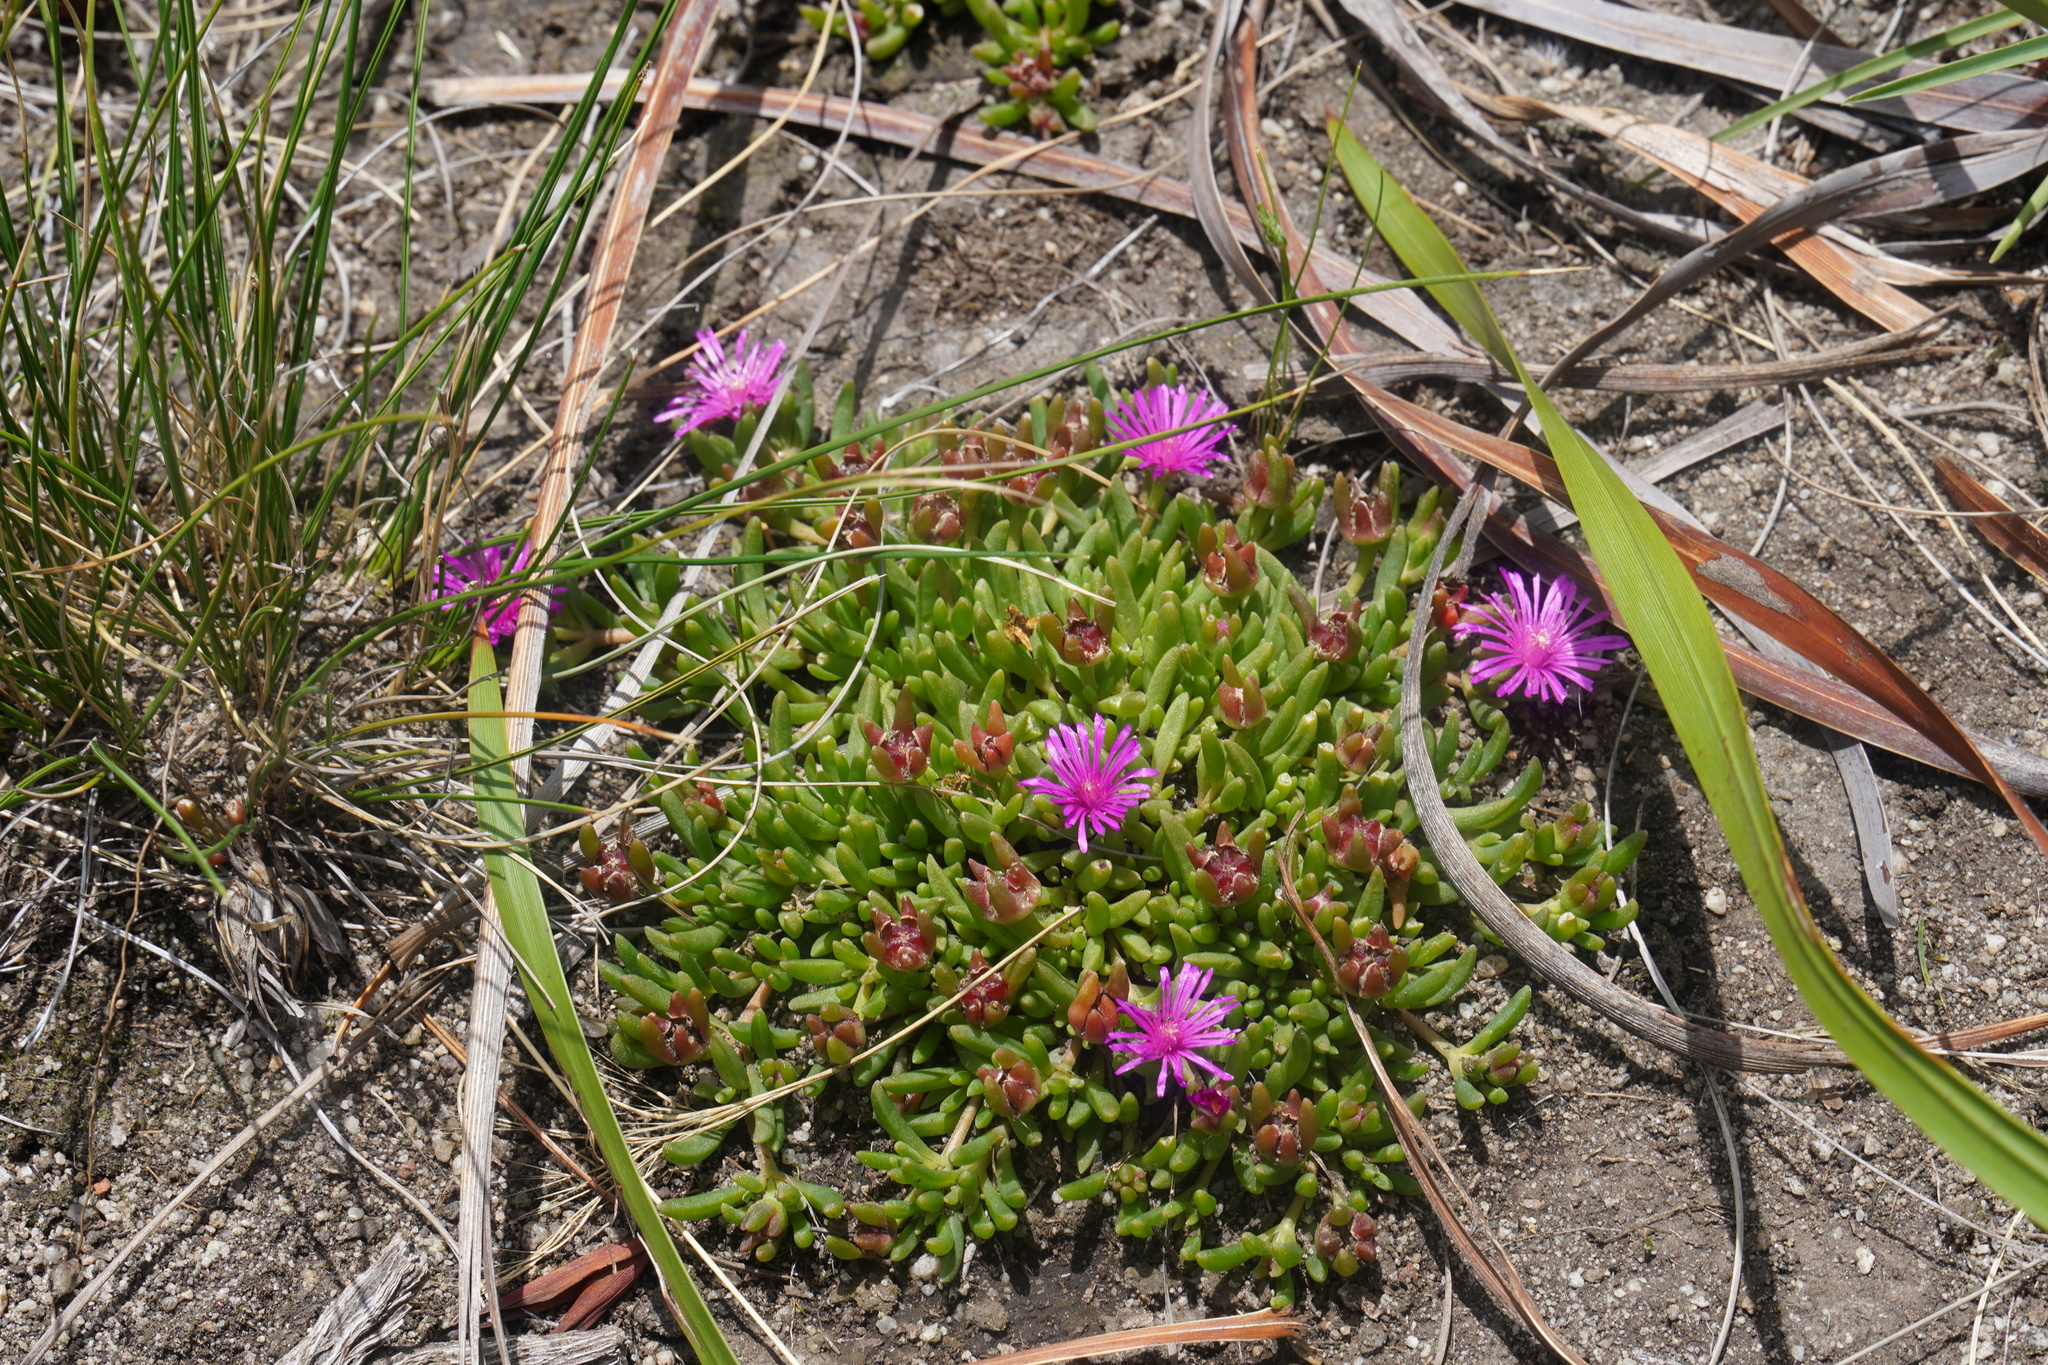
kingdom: Plantae
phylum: Tracheophyta
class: Magnoliopsida
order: Caryophyllales
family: Aizoaceae
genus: Delosperma
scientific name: Delosperma obtusum
